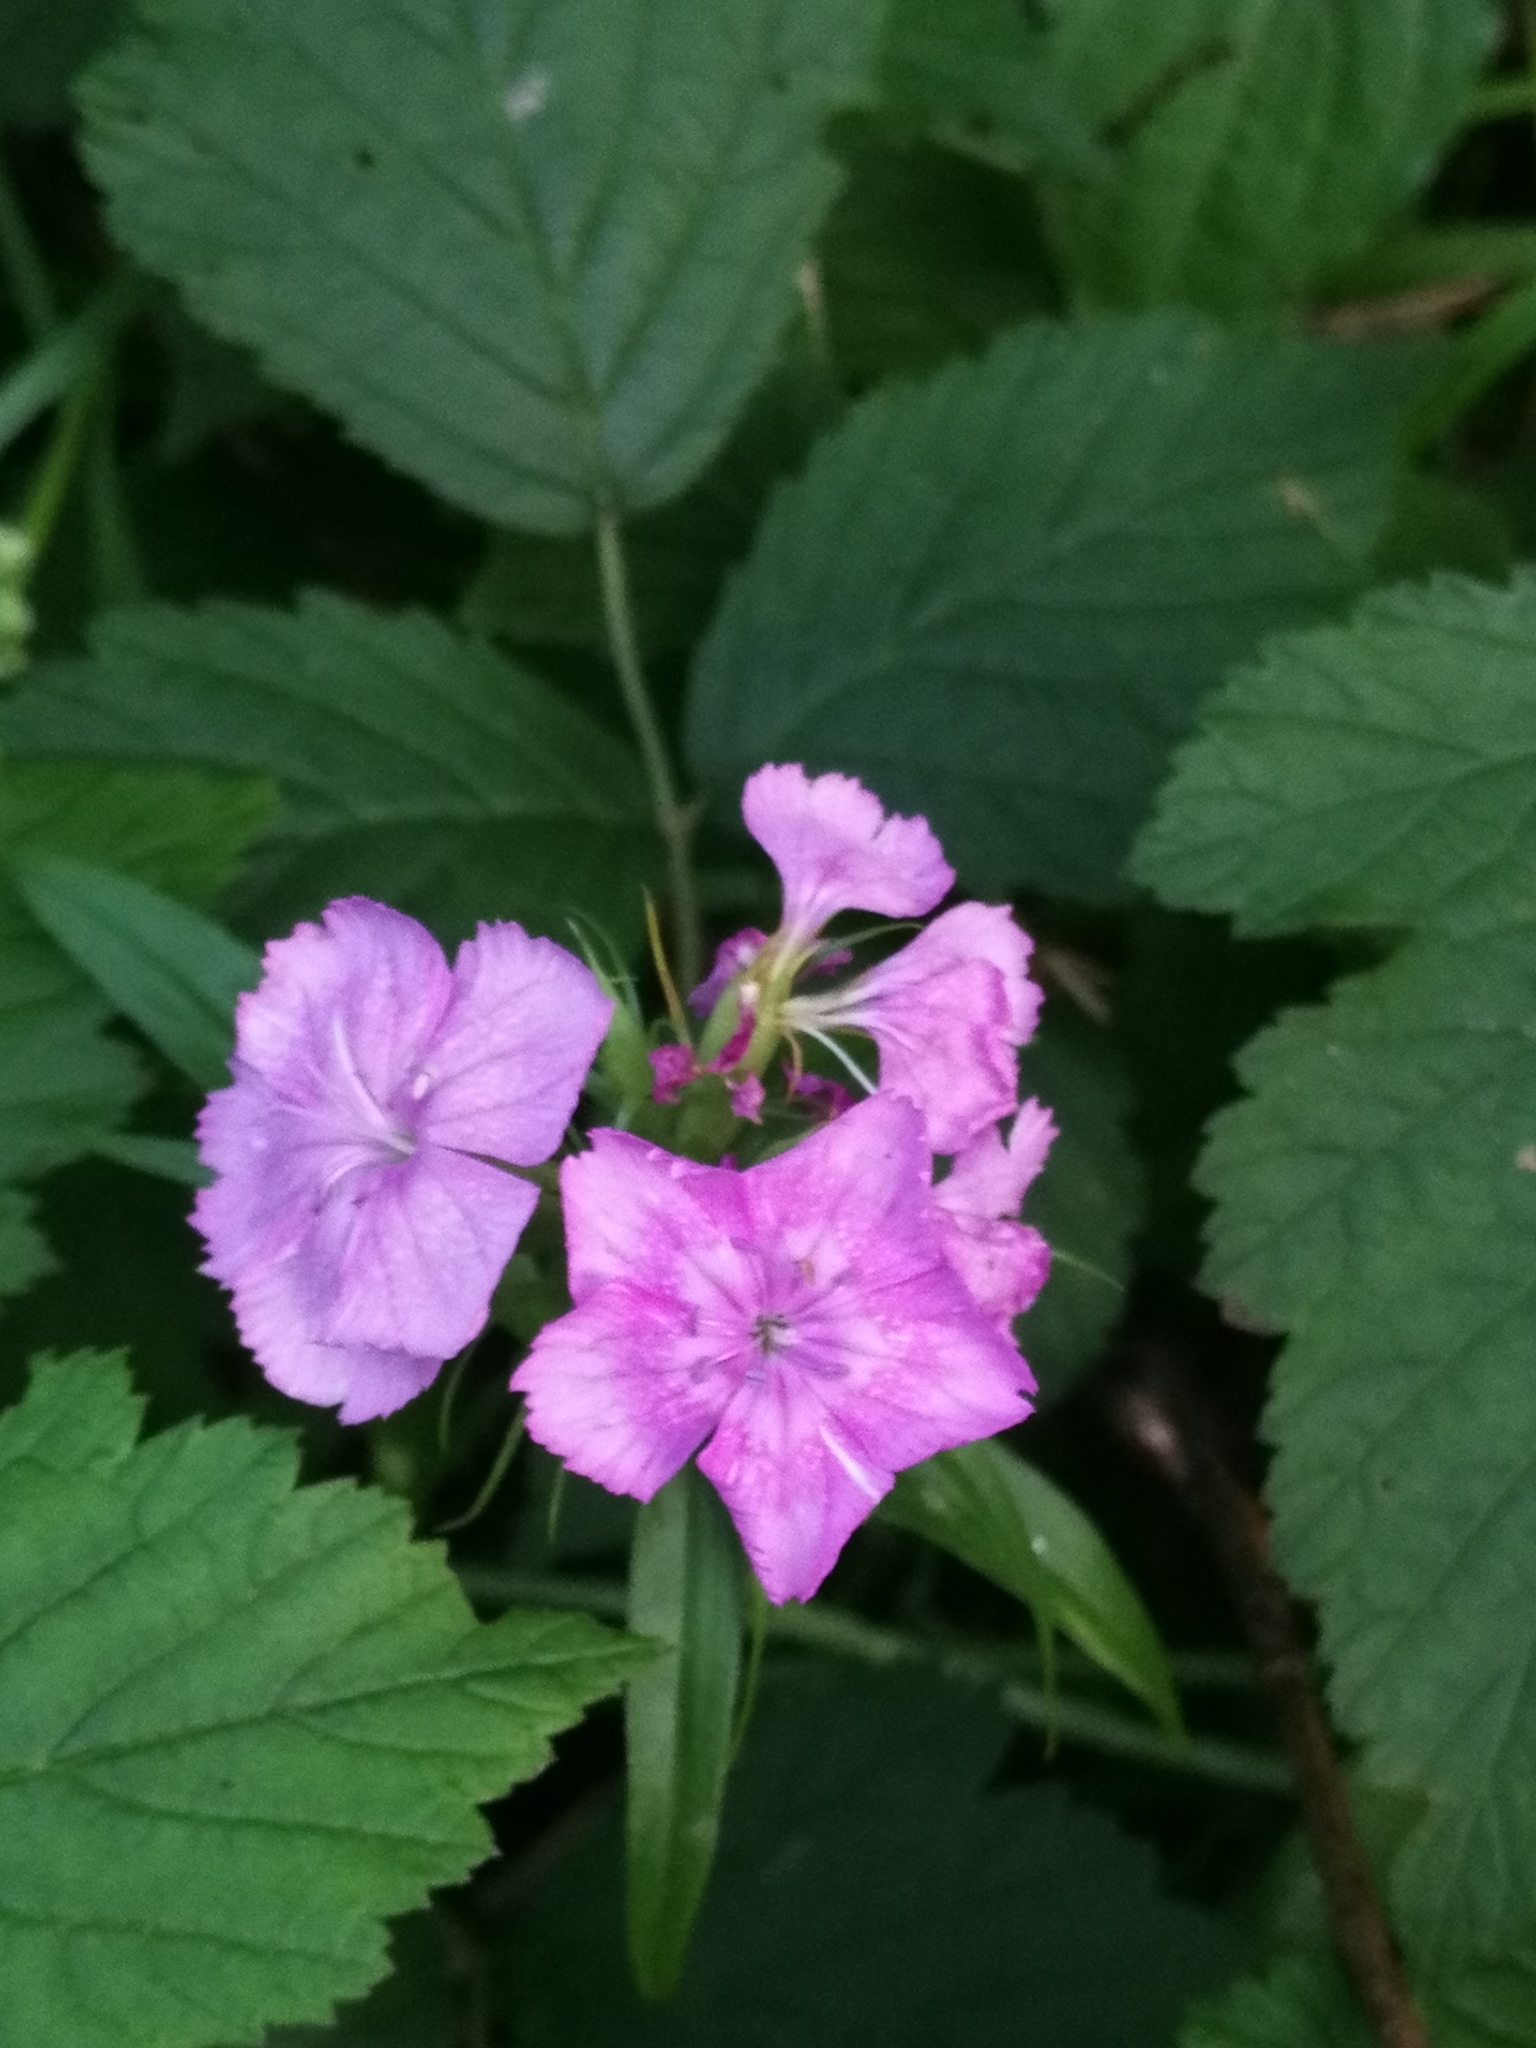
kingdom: Plantae
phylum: Tracheophyta
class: Magnoliopsida
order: Caryophyllales
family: Caryophyllaceae
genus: Dianthus
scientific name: Dianthus barbatus
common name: Sweet-william
